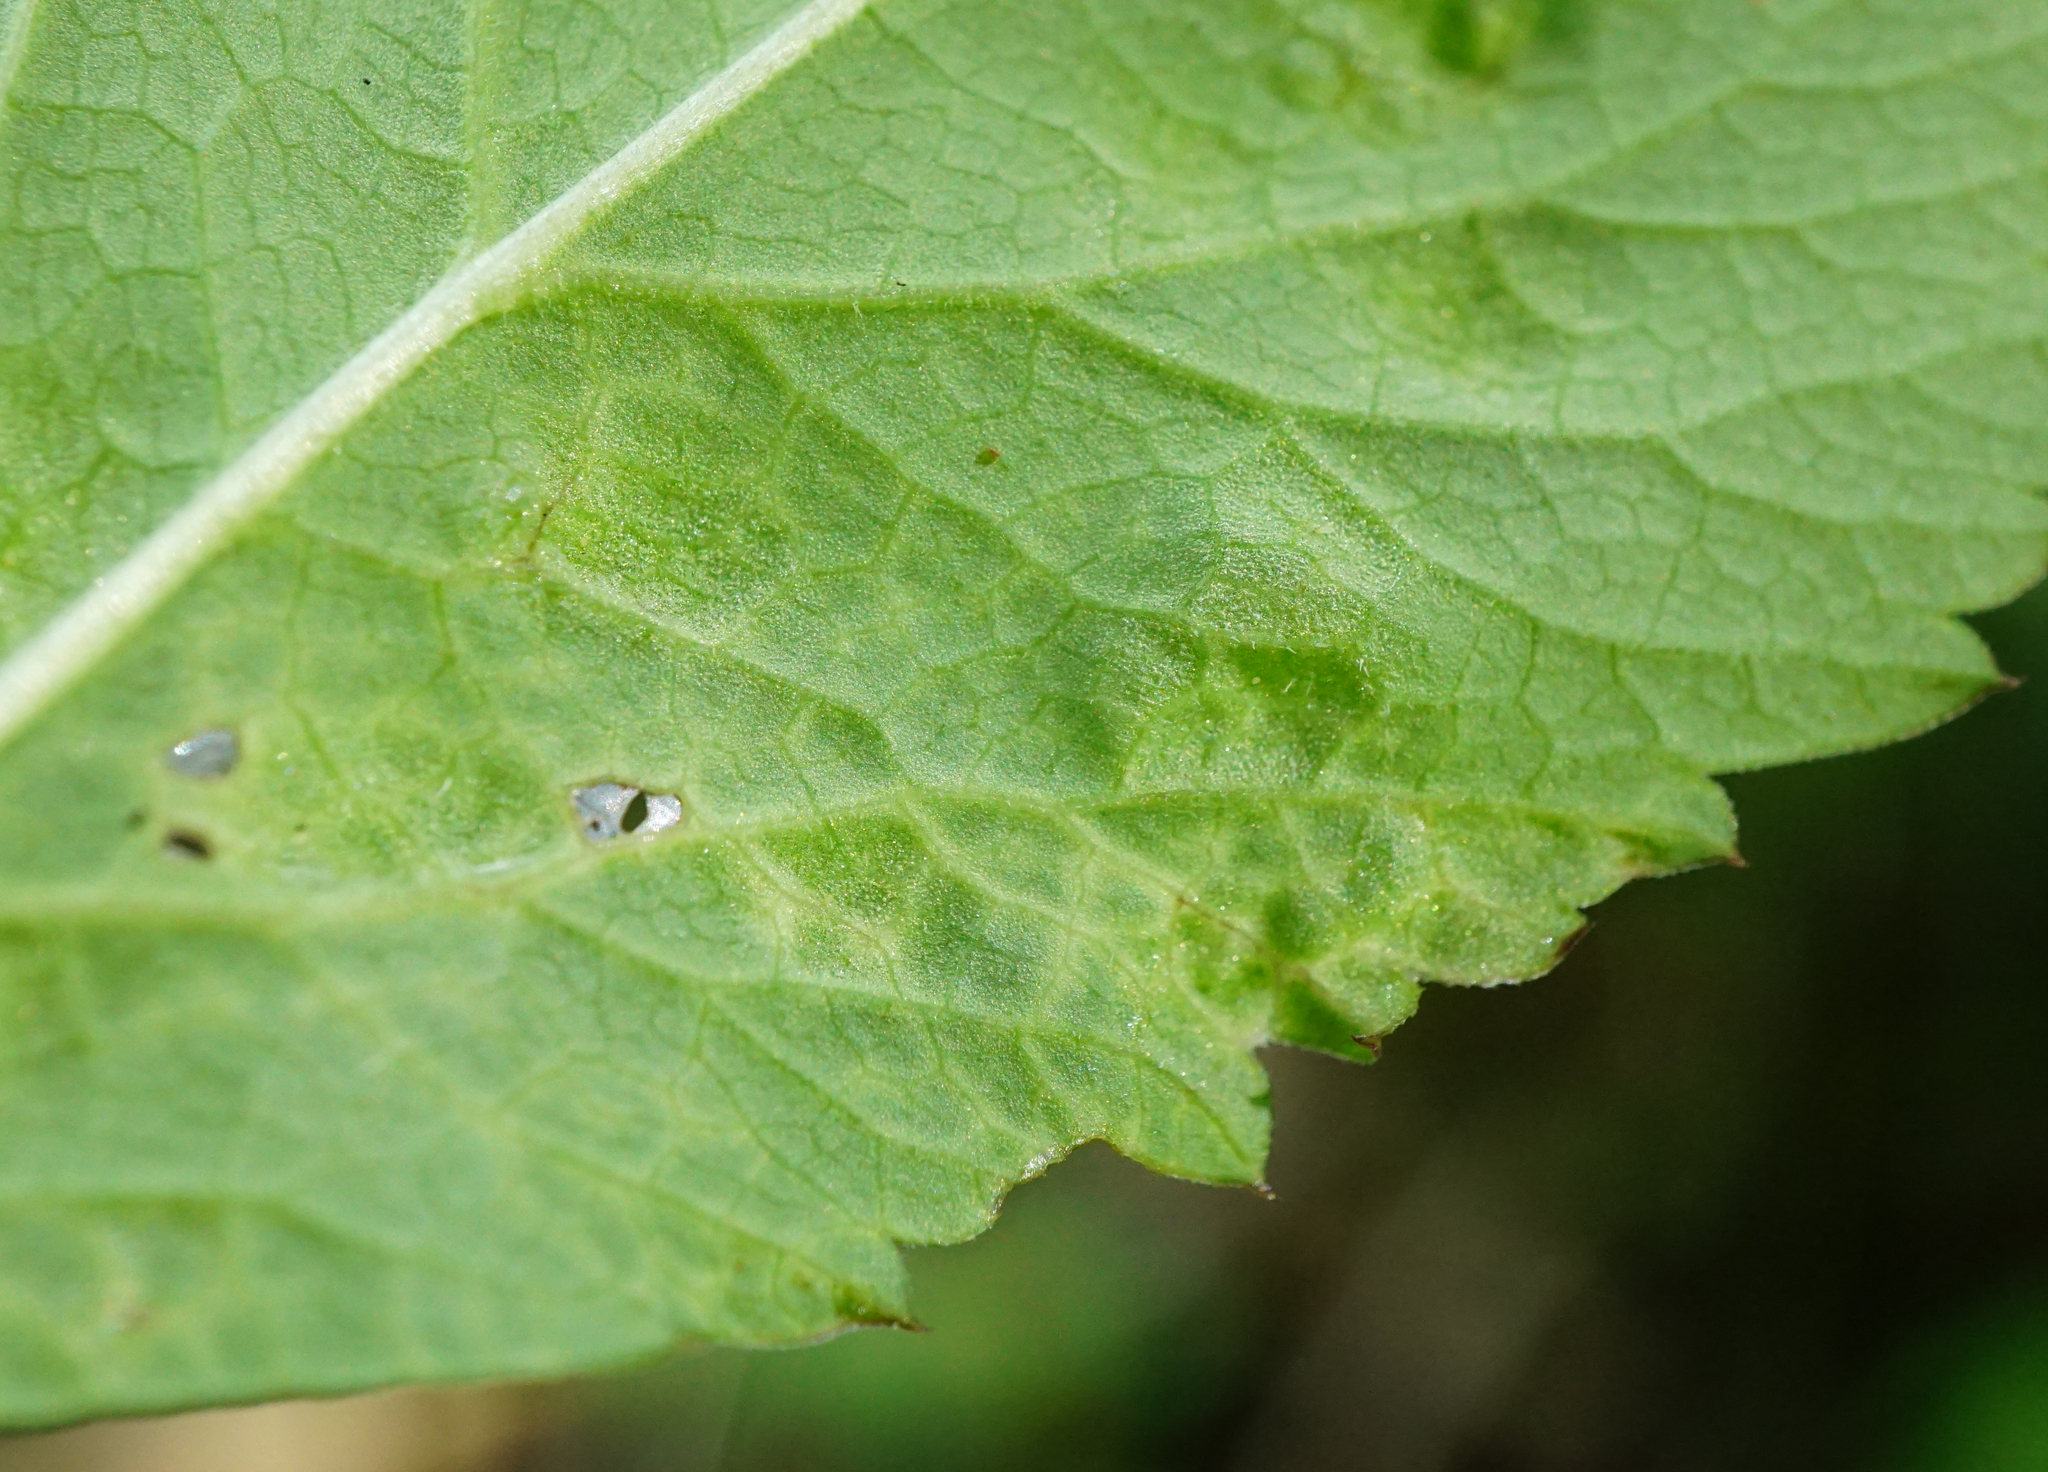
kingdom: Animalia
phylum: Arthropoda
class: Insecta
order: Hemiptera
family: Triozidae
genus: Trioza
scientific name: Trioza flavipennis
